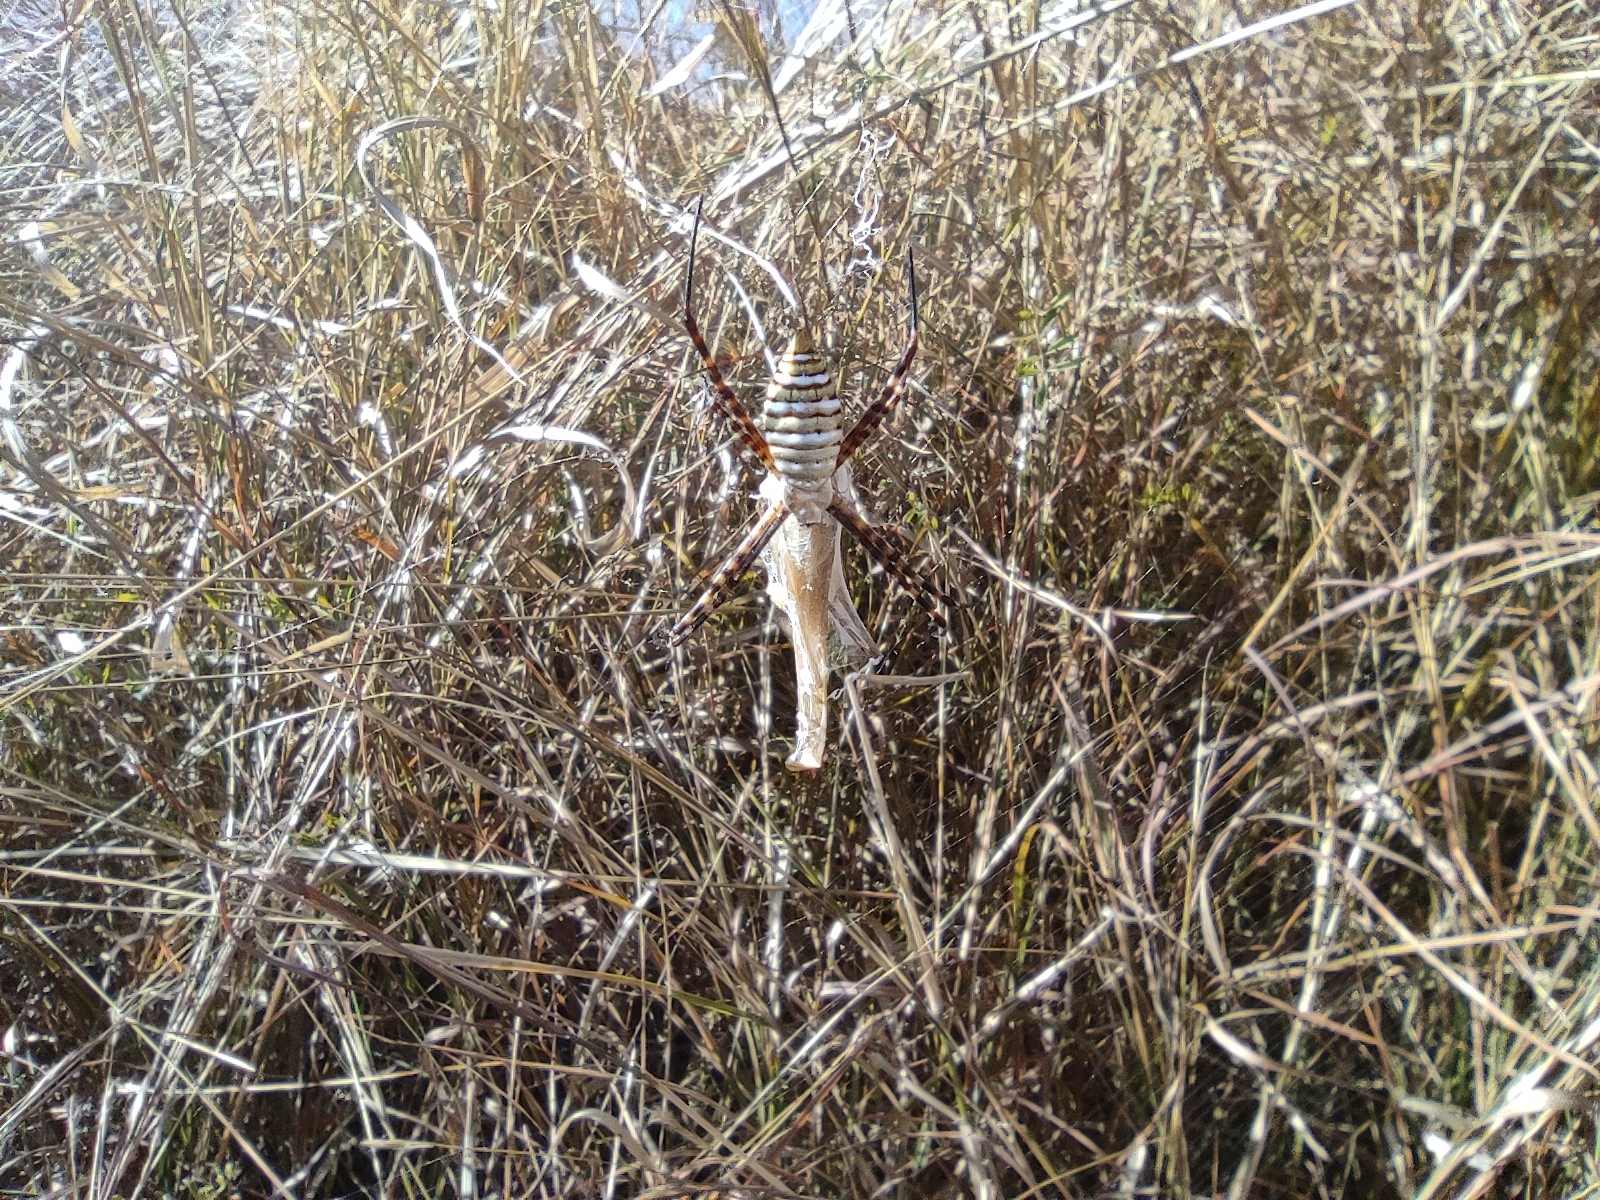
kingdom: Animalia
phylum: Arthropoda
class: Arachnida
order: Araneae
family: Araneidae
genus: Argiope
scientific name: Argiope trifasciata
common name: Banded garden spider
